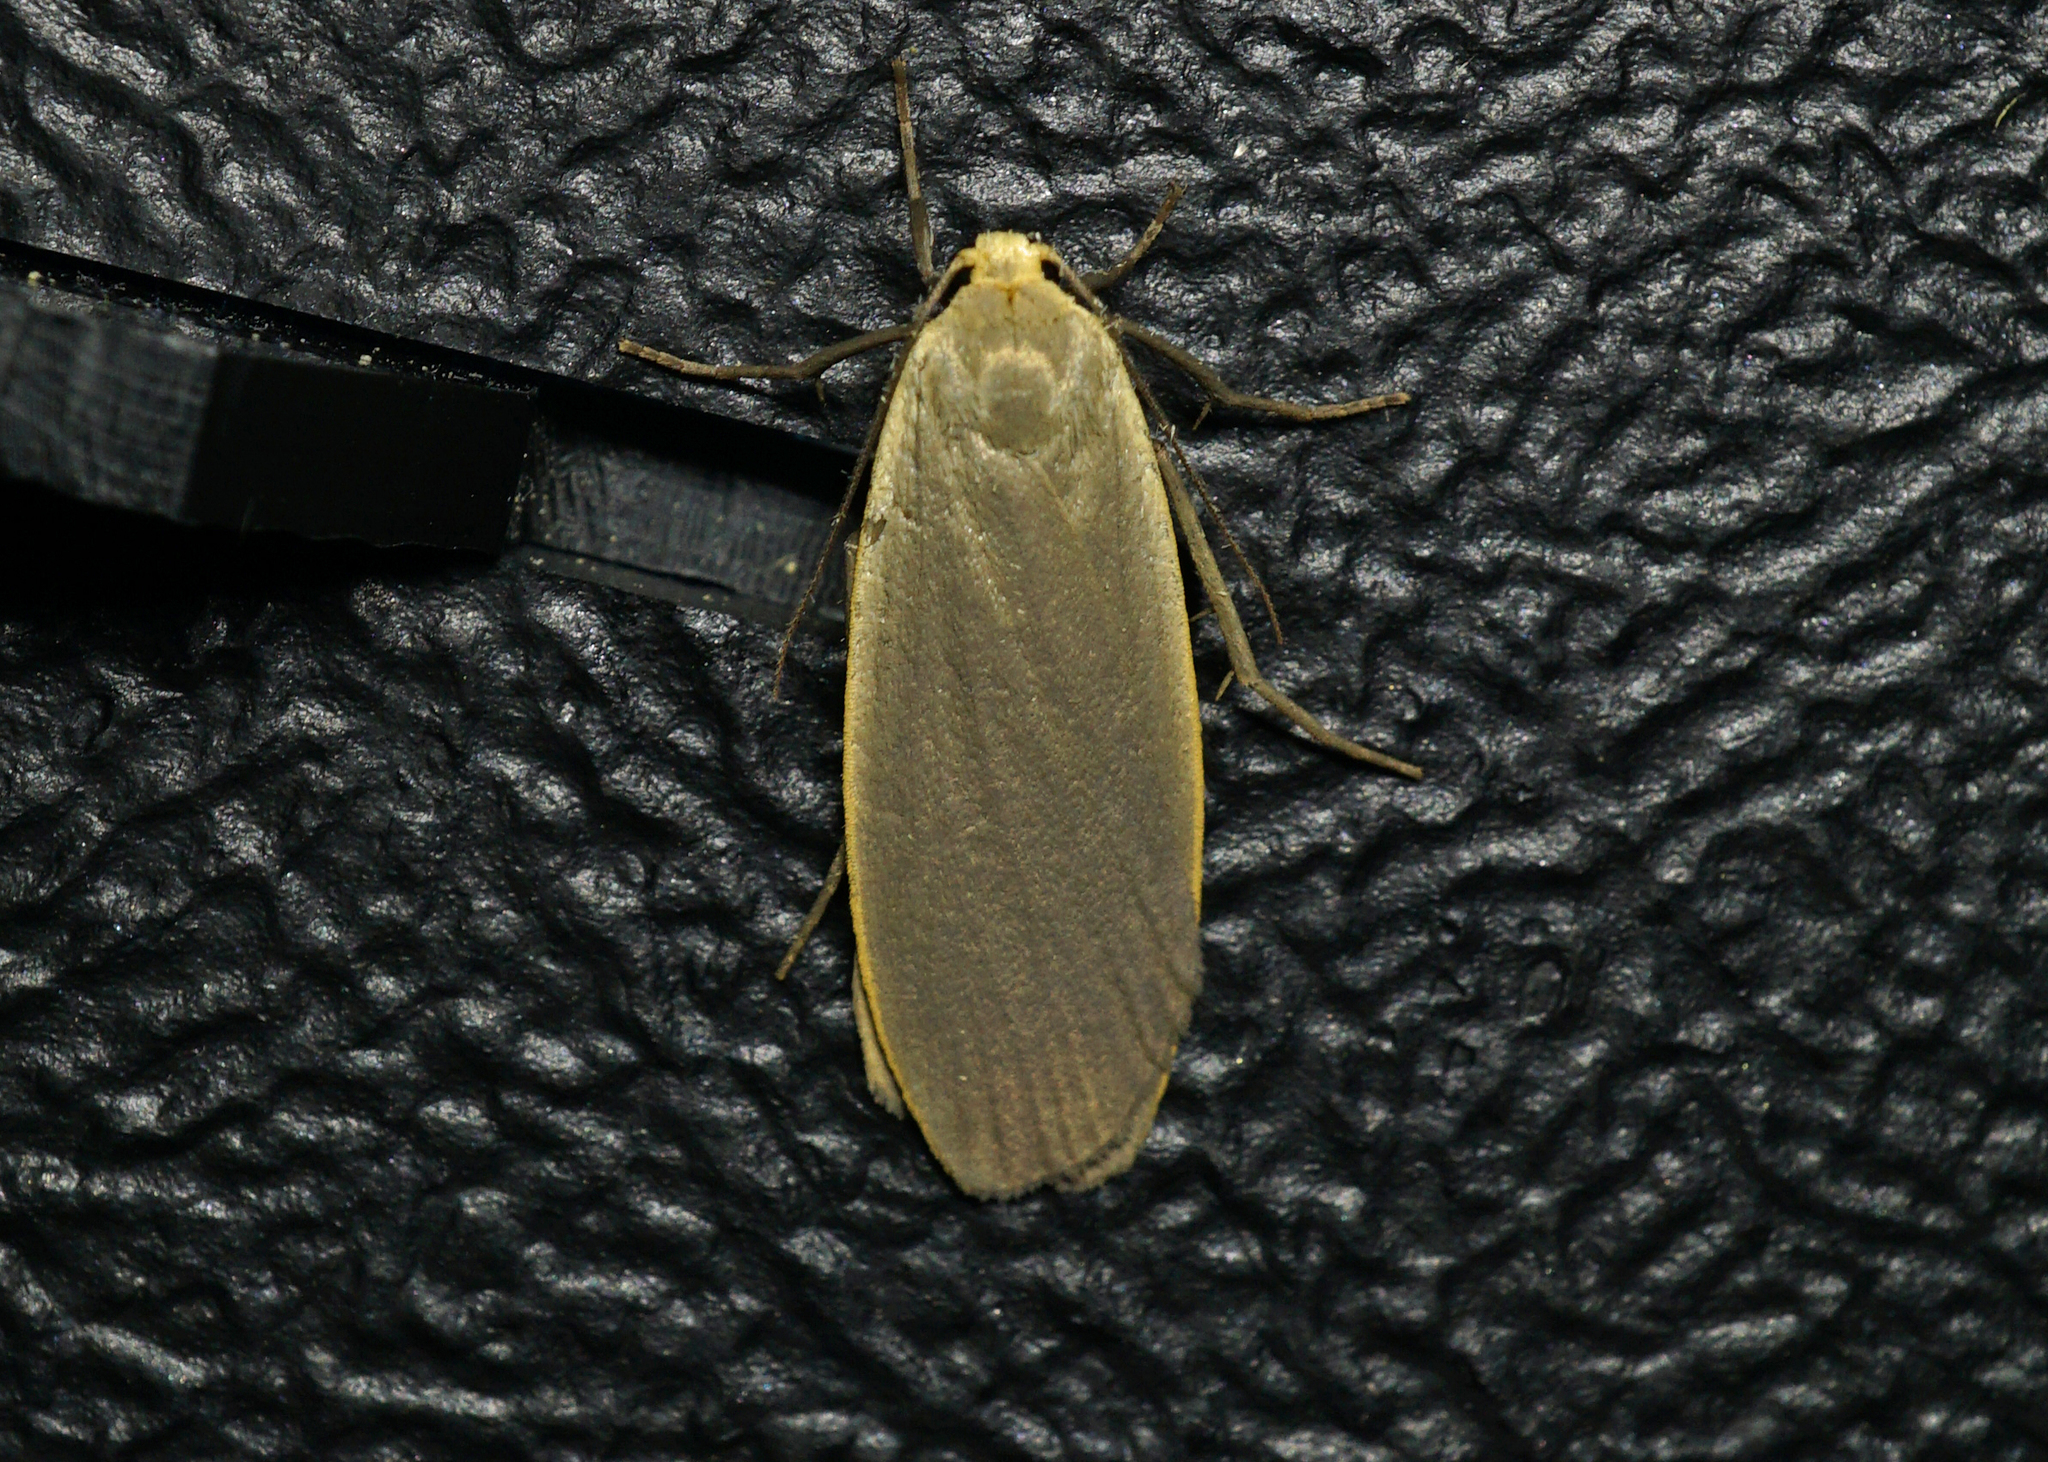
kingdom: Animalia
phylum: Arthropoda
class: Insecta
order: Lepidoptera
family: Erebidae
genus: Collita
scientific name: Collita griseola
